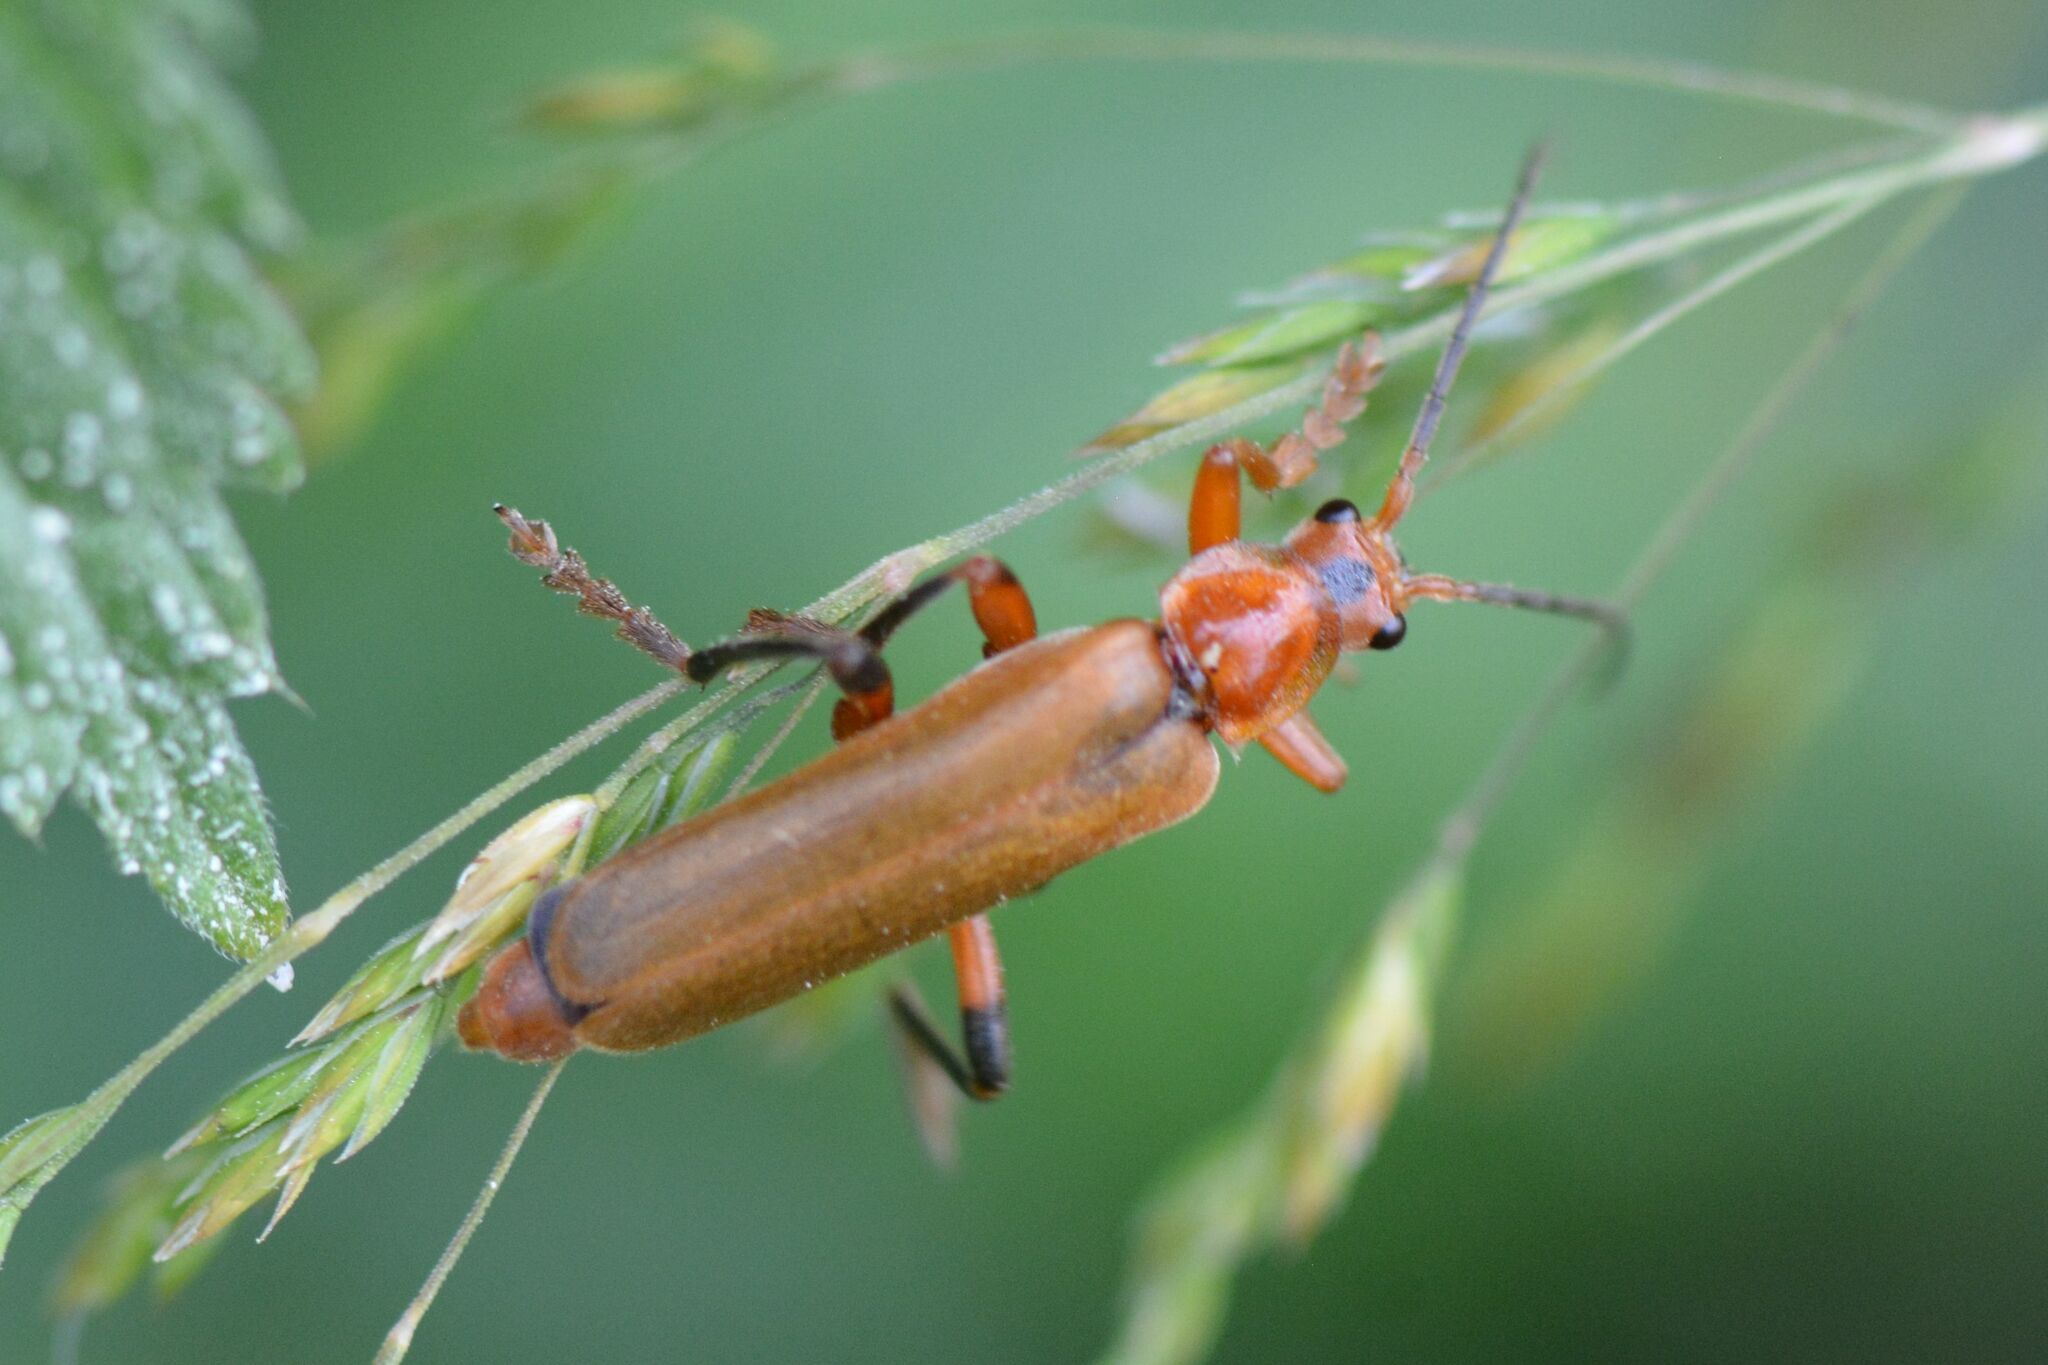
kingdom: Animalia
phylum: Arthropoda
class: Insecta
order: Coleoptera
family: Cantharidae
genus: Cantharis
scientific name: Cantharis livida
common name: Livid soldier beetle
